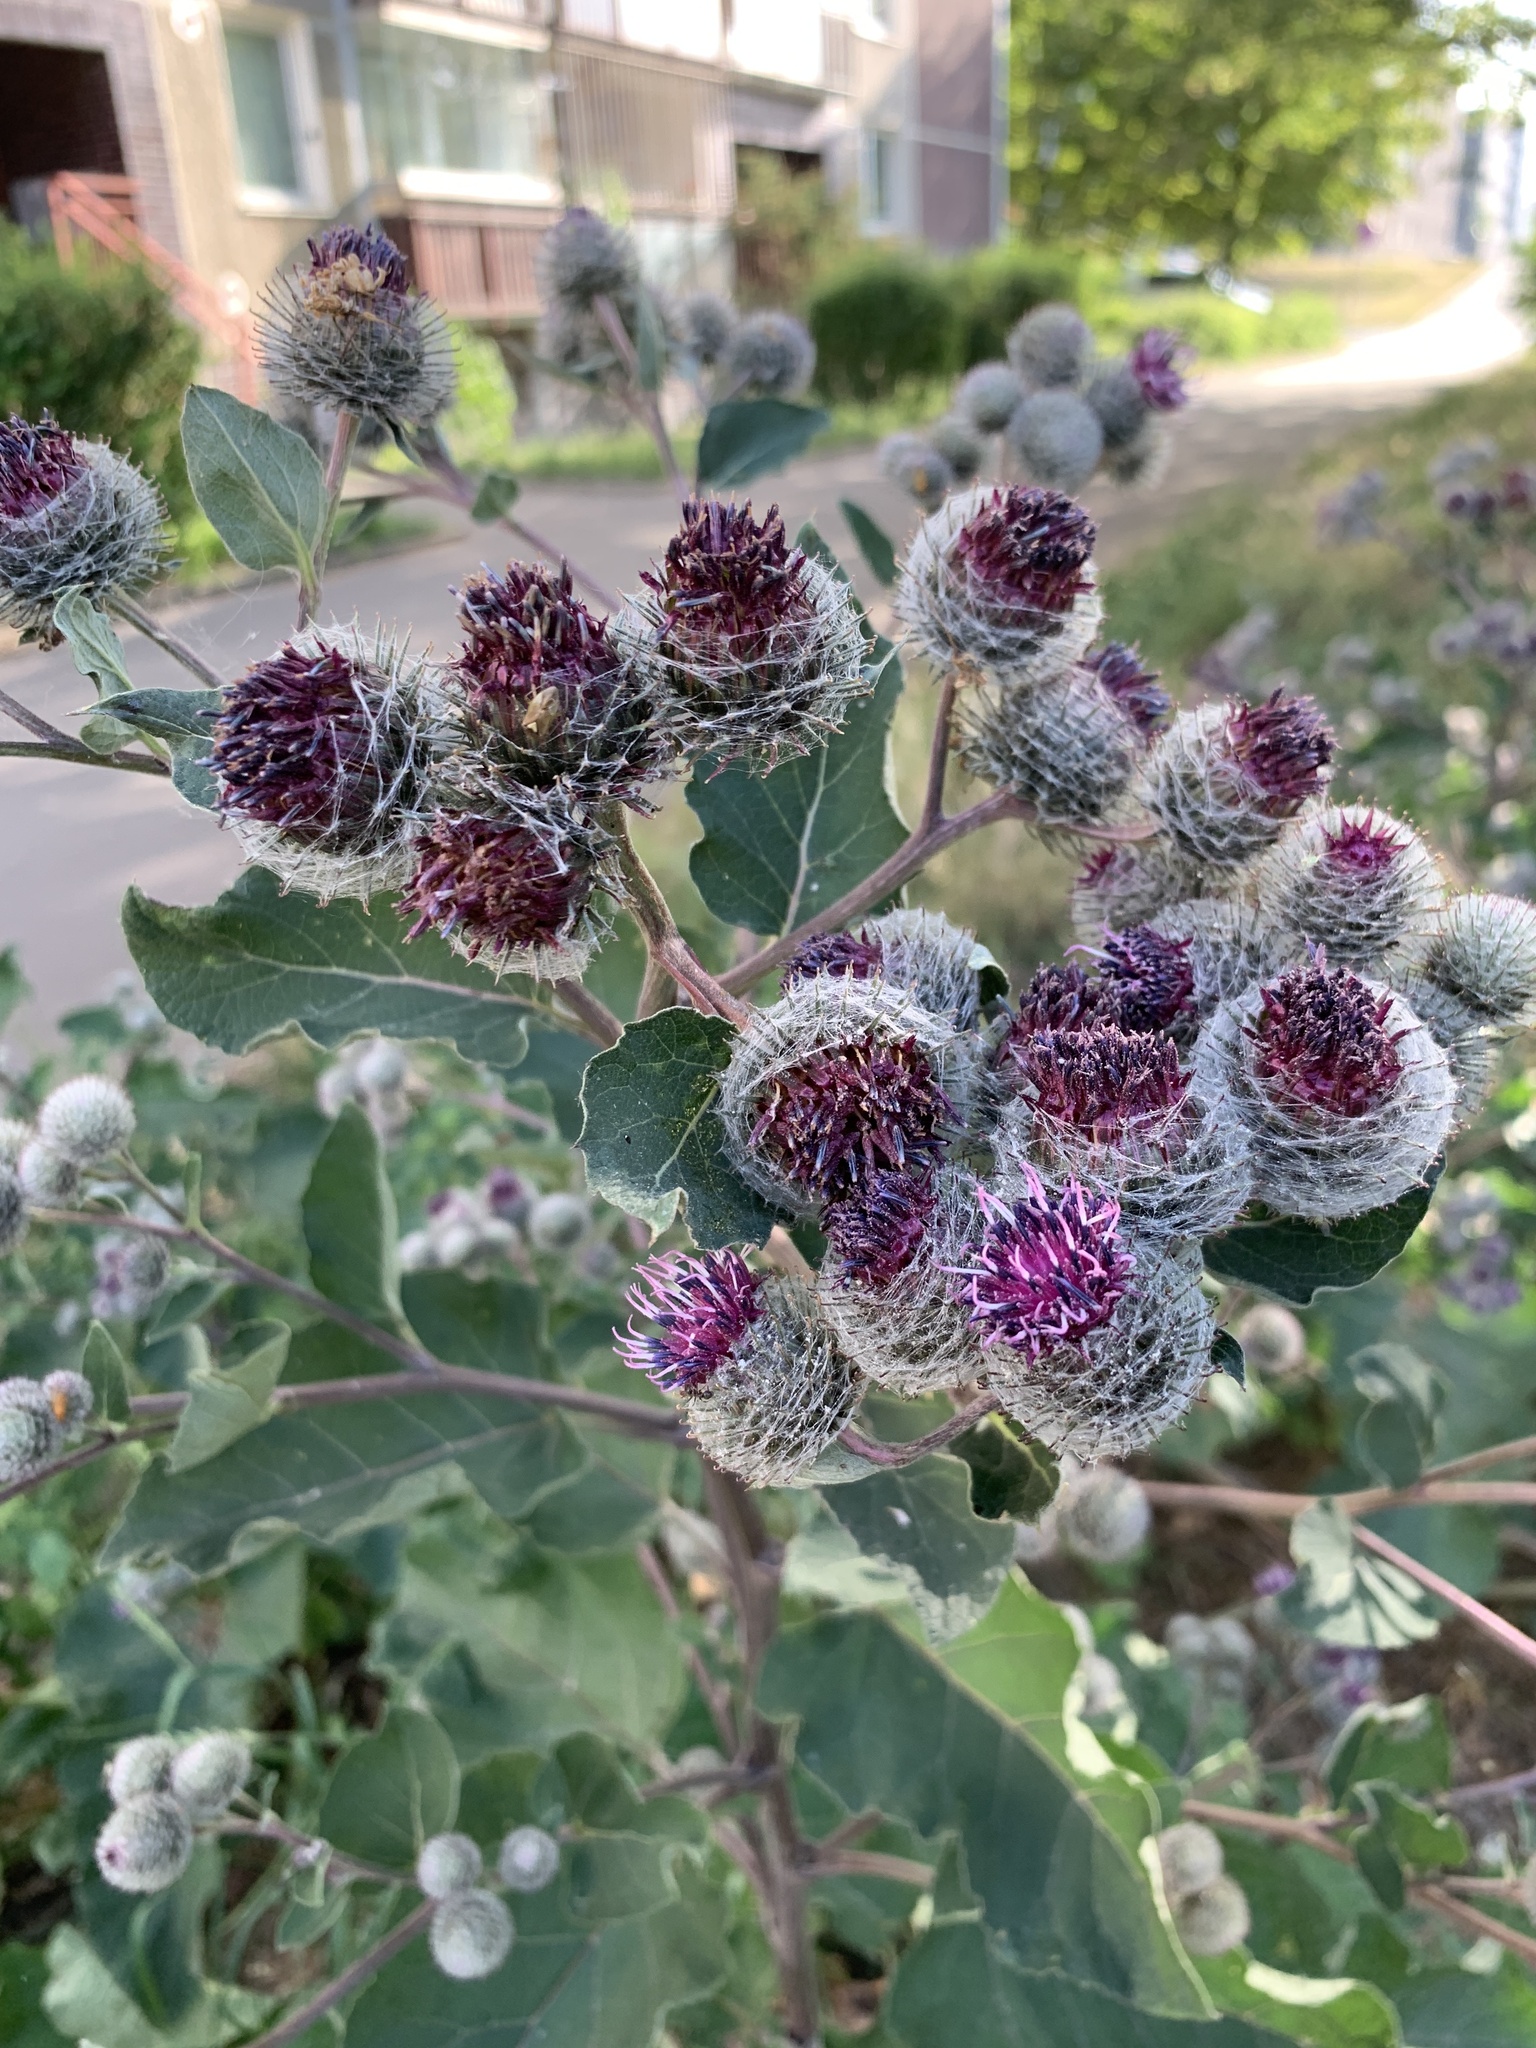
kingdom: Plantae
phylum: Tracheophyta
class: Magnoliopsida
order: Asterales
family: Asteraceae
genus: Arctium
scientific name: Arctium tomentosum
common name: Woolly burdock
